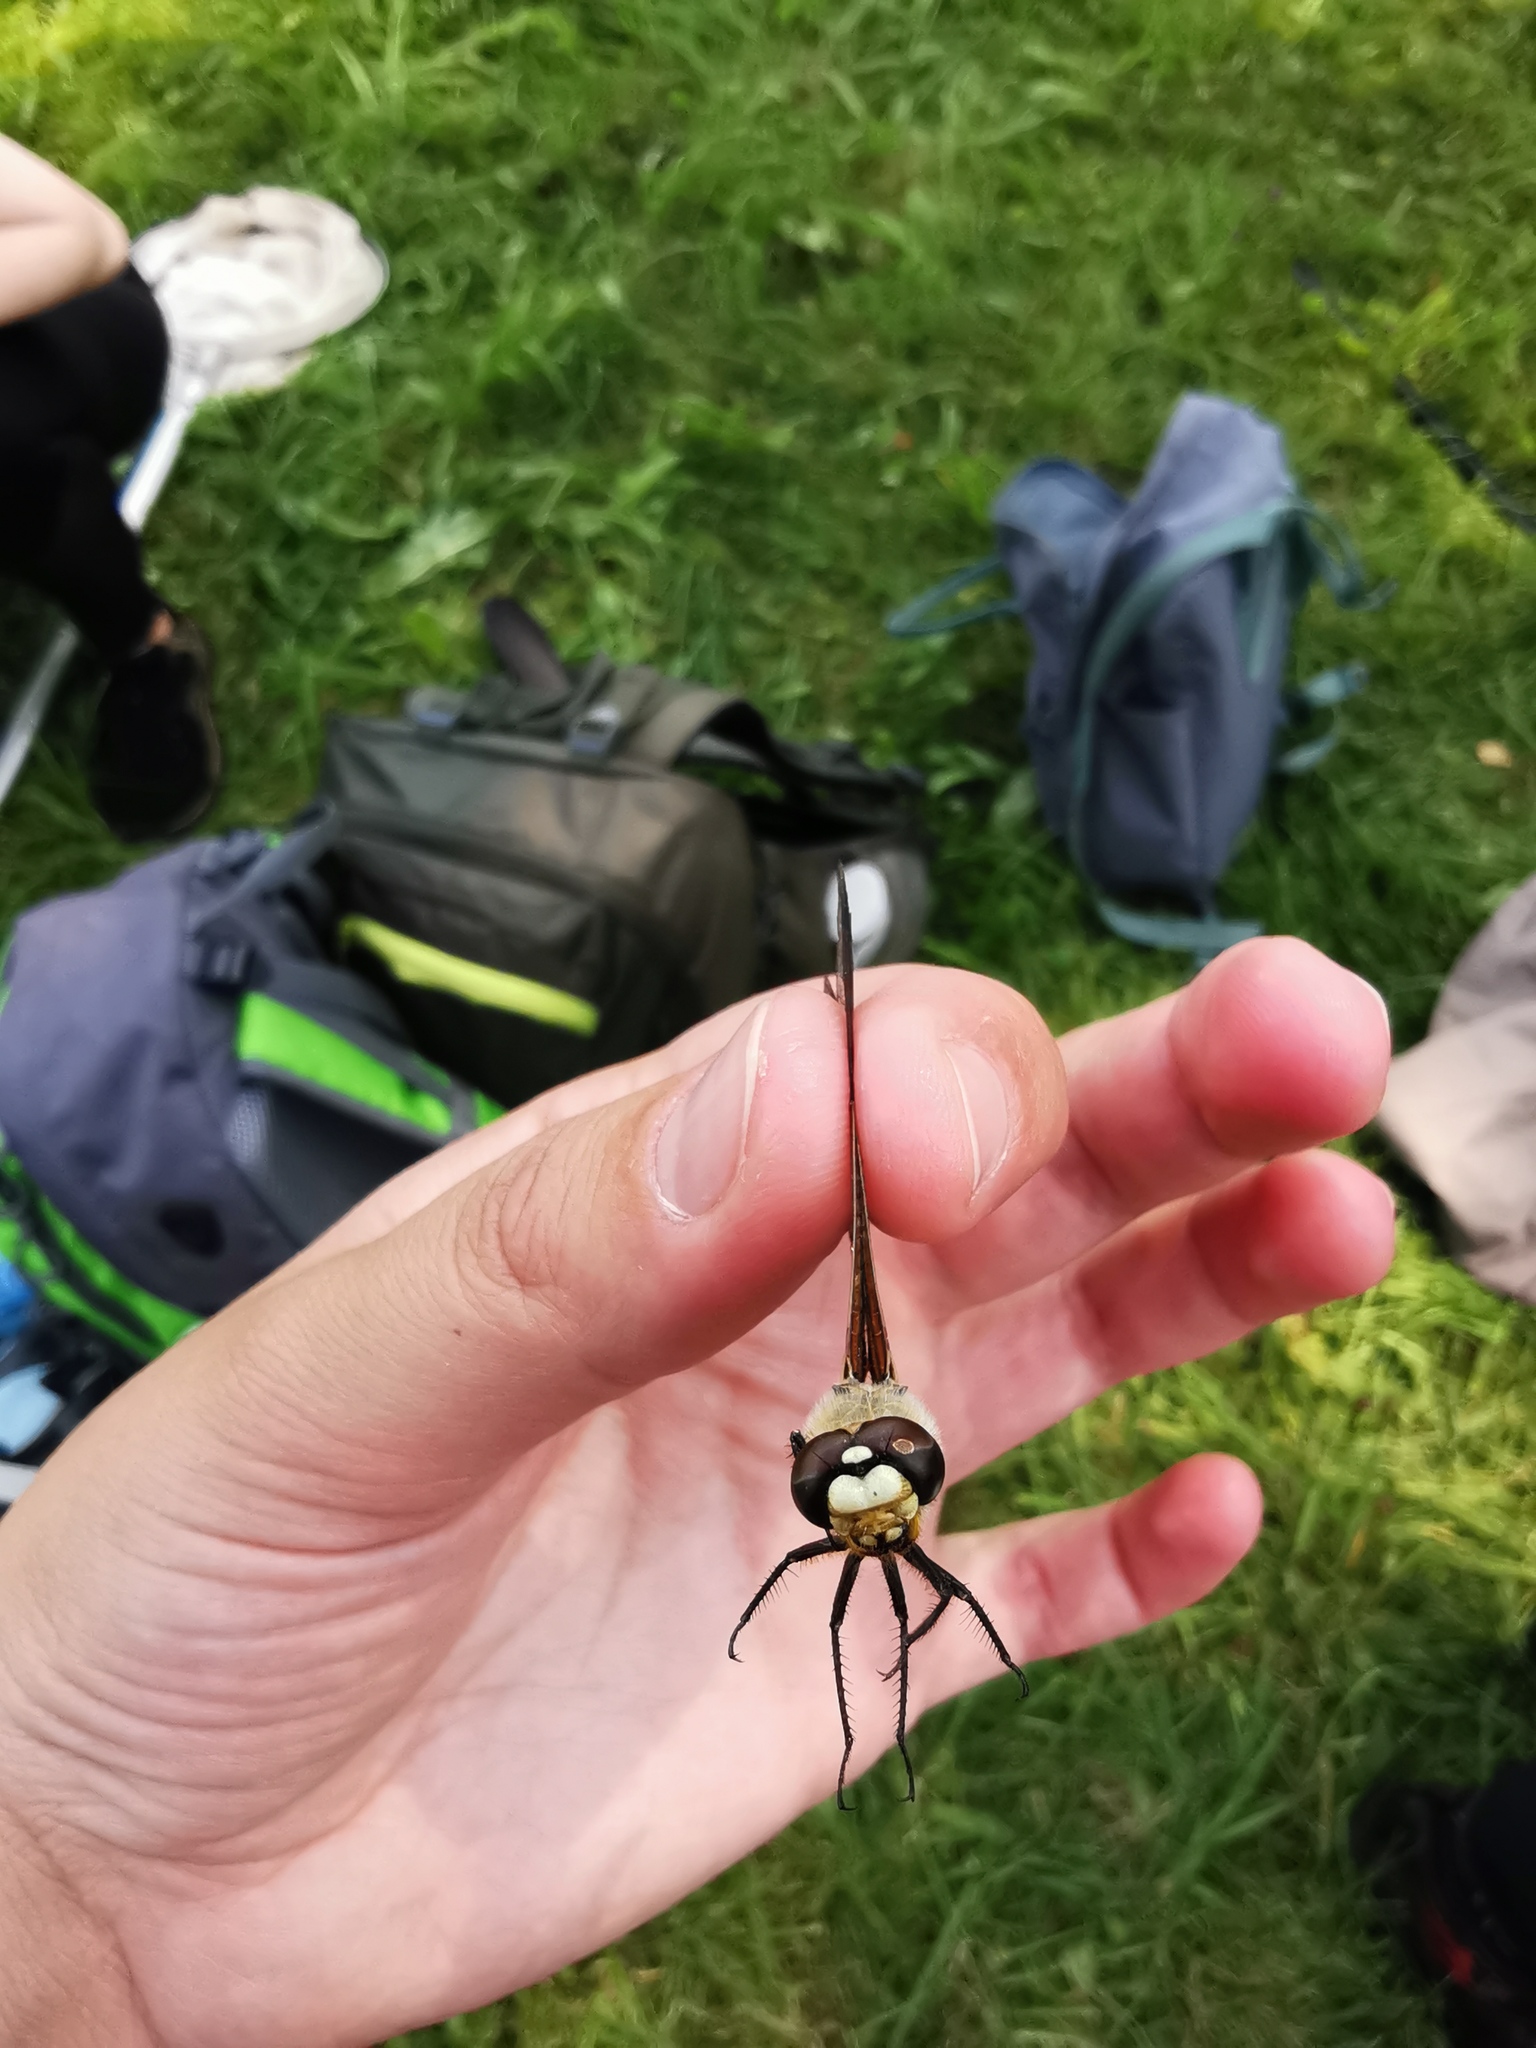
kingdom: Animalia
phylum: Arthropoda
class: Insecta
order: Odonata
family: Libellulidae
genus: Libellula
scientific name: Libellula quadrimaculata
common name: Four-spotted chaser
